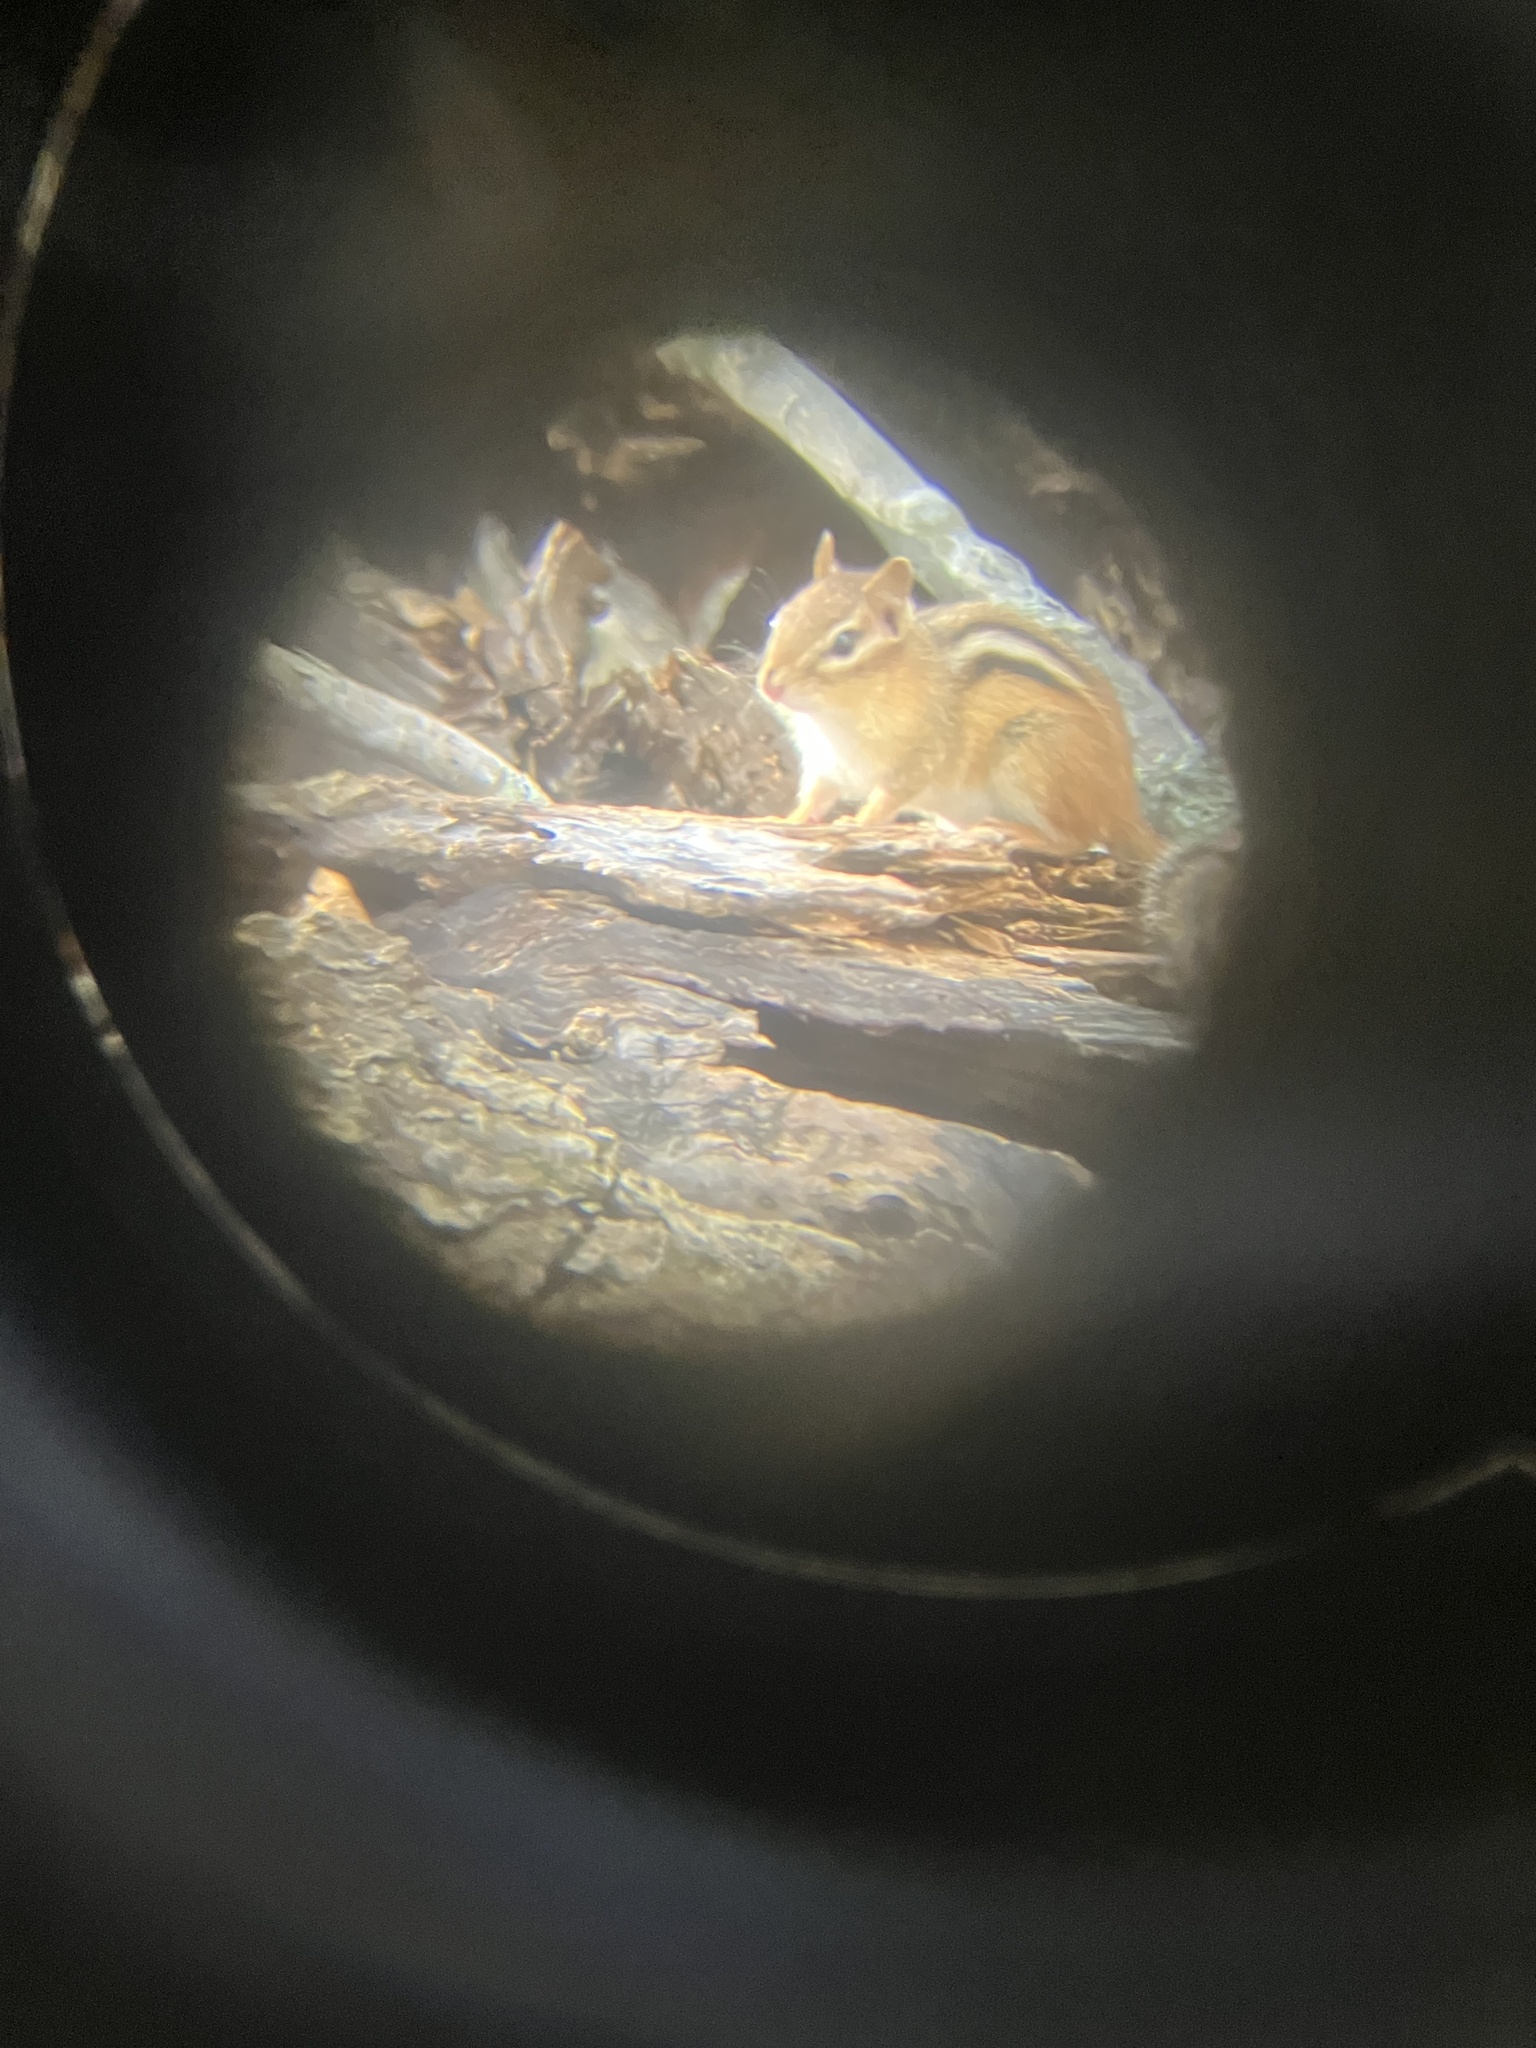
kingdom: Animalia
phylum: Chordata
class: Mammalia
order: Rodentia
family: Sciuridae
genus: Tamias
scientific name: Tamias striatus
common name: Eastern chipmunk
